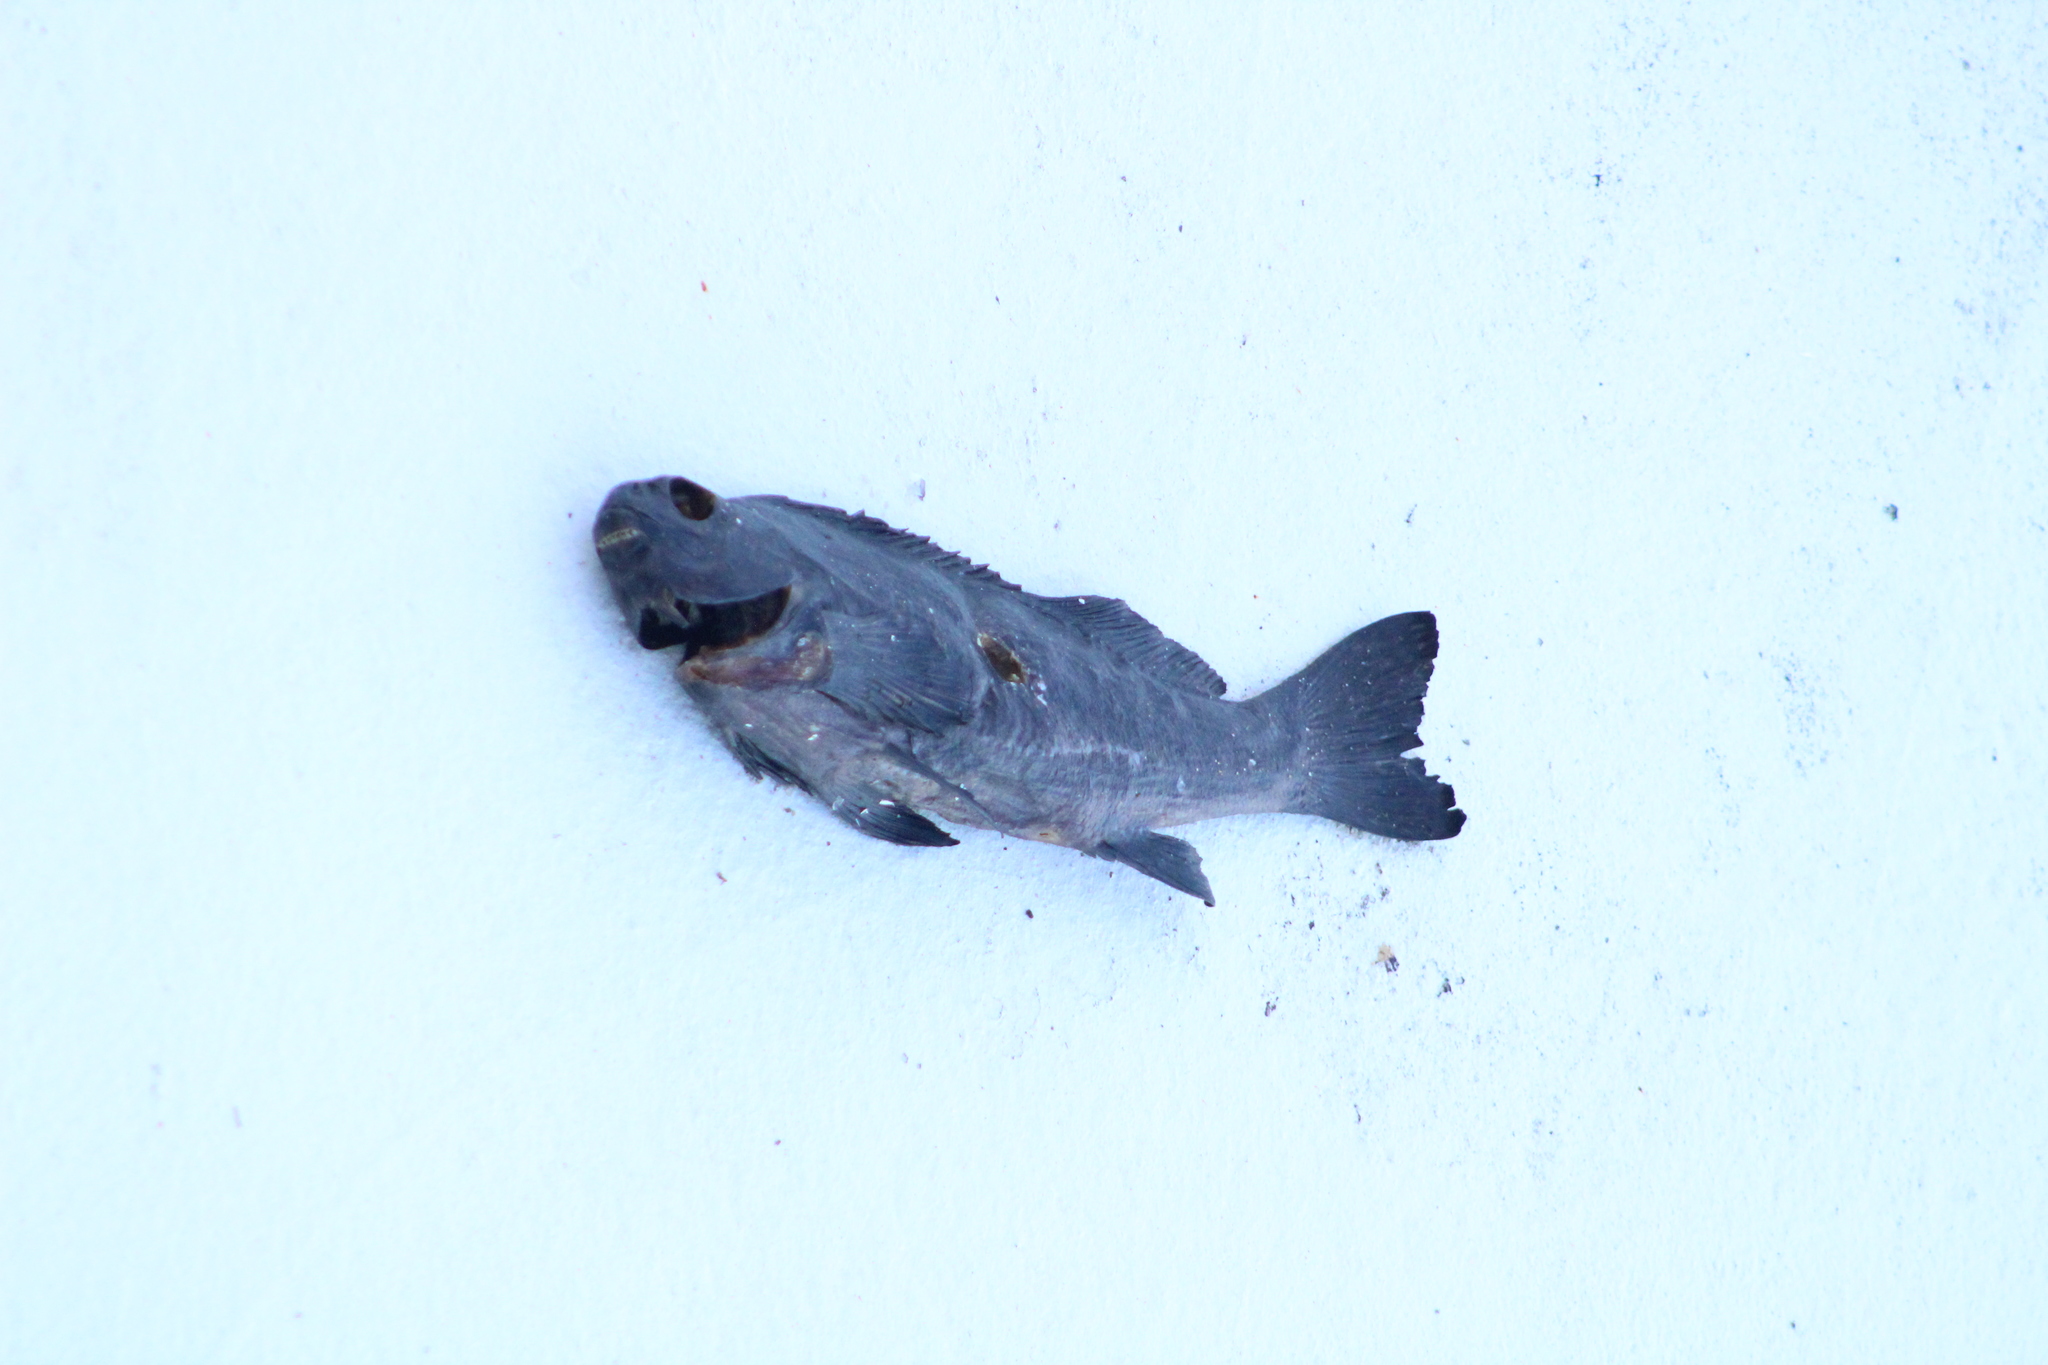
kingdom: Animalia
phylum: Chordata
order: Perciformes
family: Aplodactylidae
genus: Aplodactylus
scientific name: Aplodactylus lophodon
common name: Cockatoo fish
